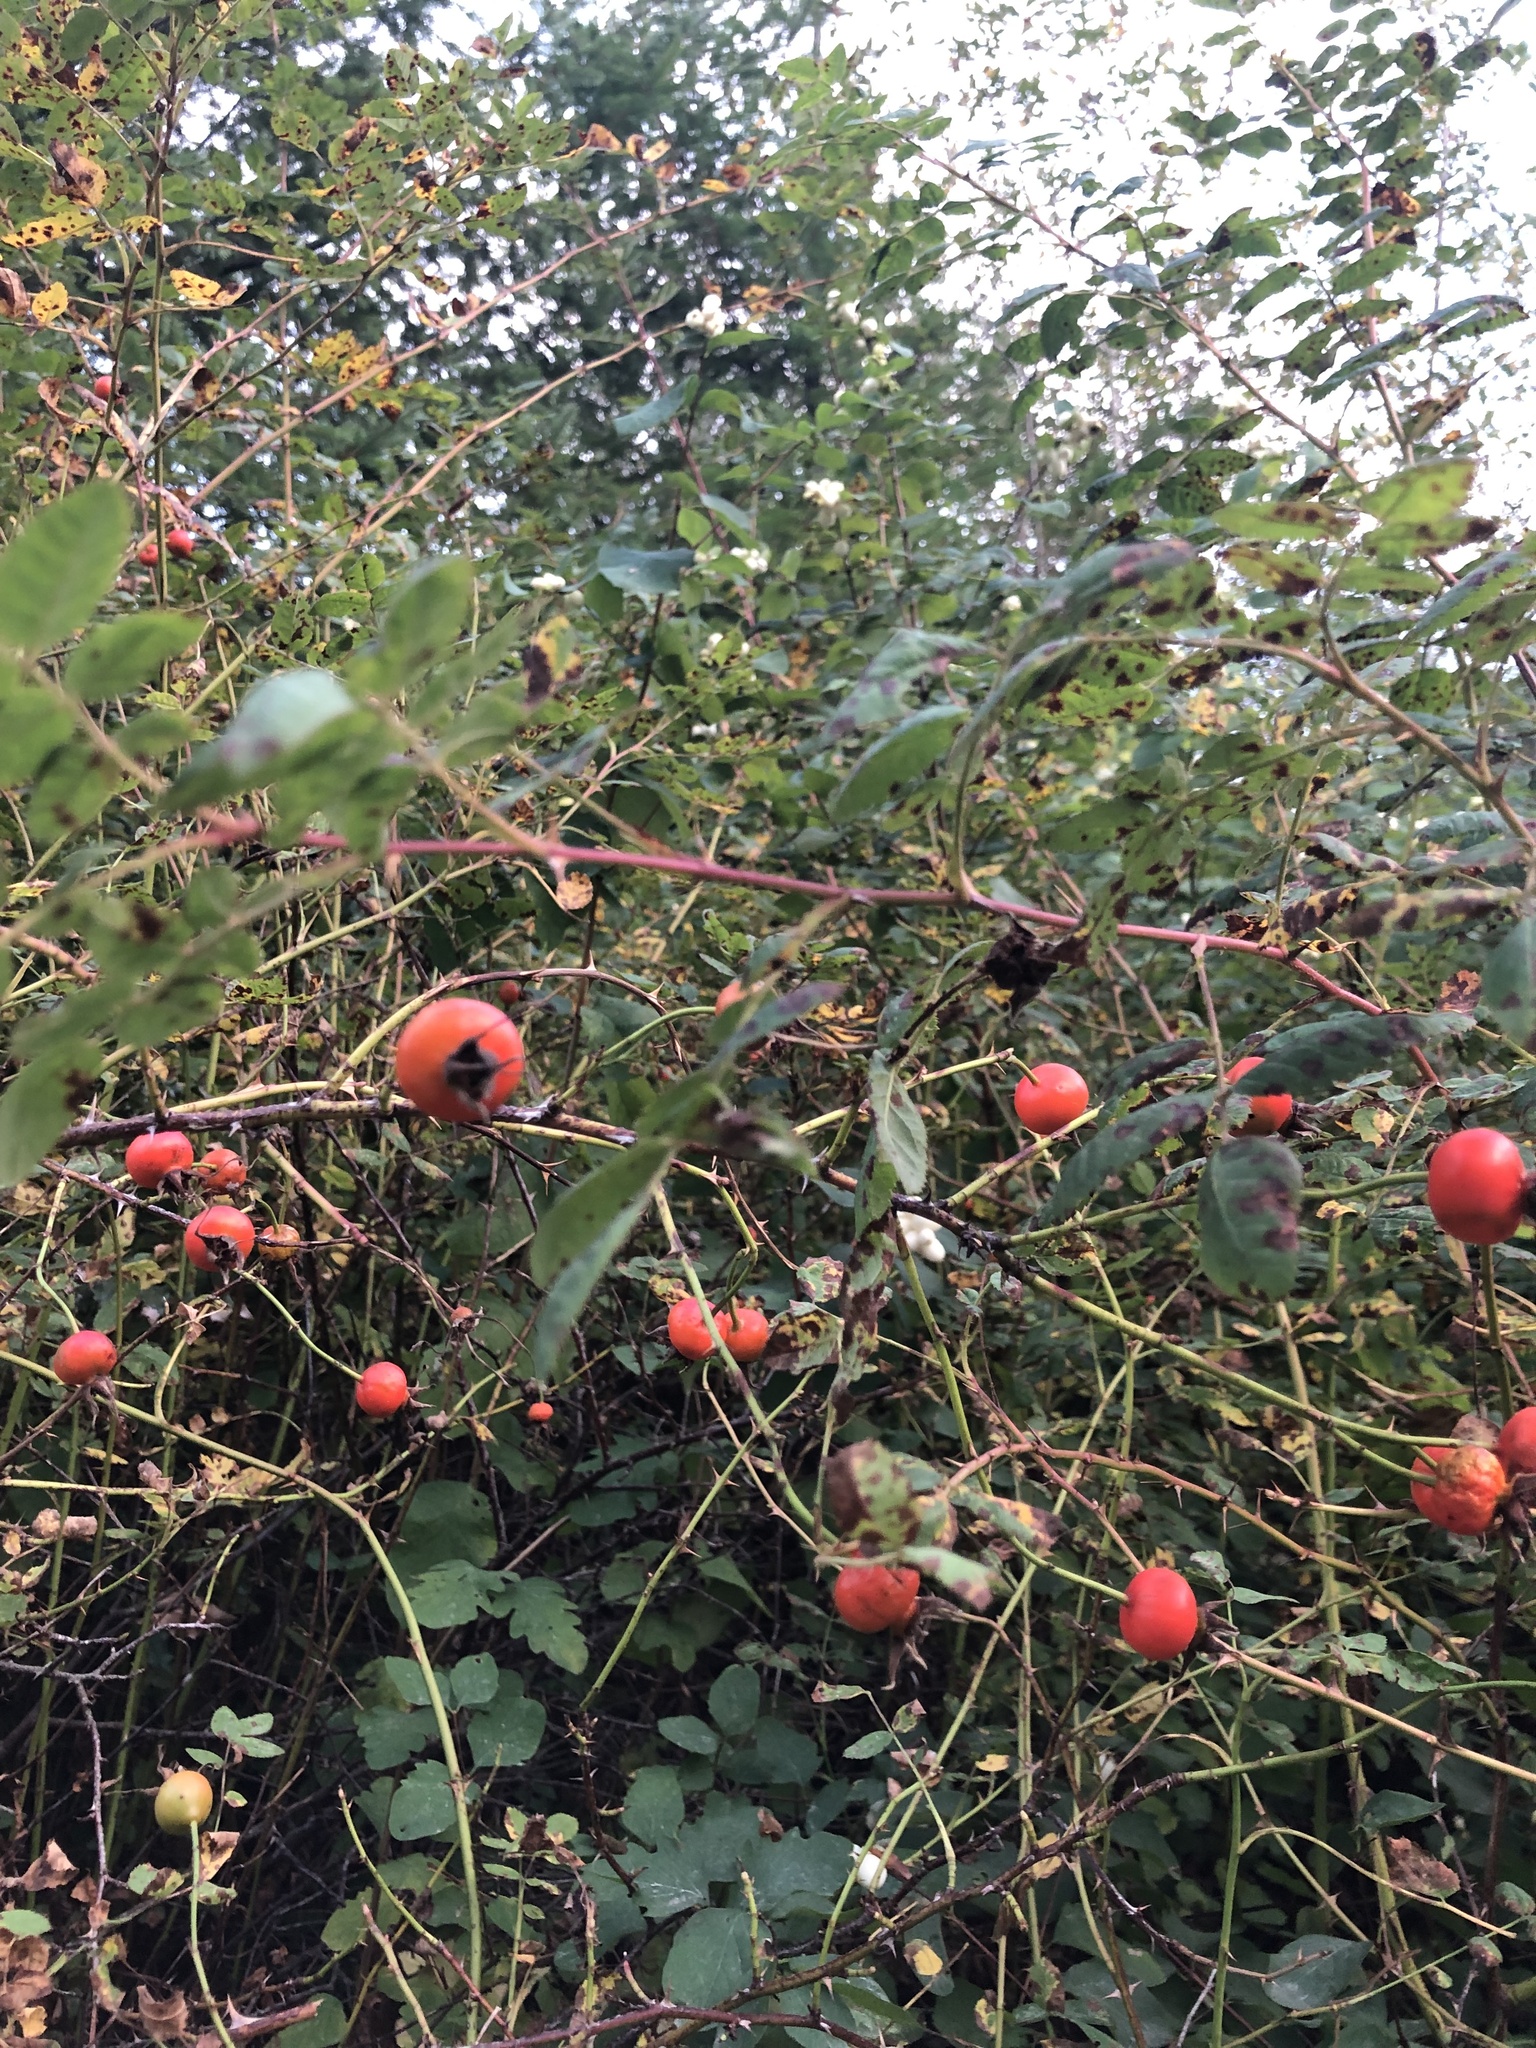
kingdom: Plantae
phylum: Tracheophyta
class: Magnoliopsida
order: Rosales
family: Rosaceae
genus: Rosa
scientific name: Rosa nutkana
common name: Nootka rose
